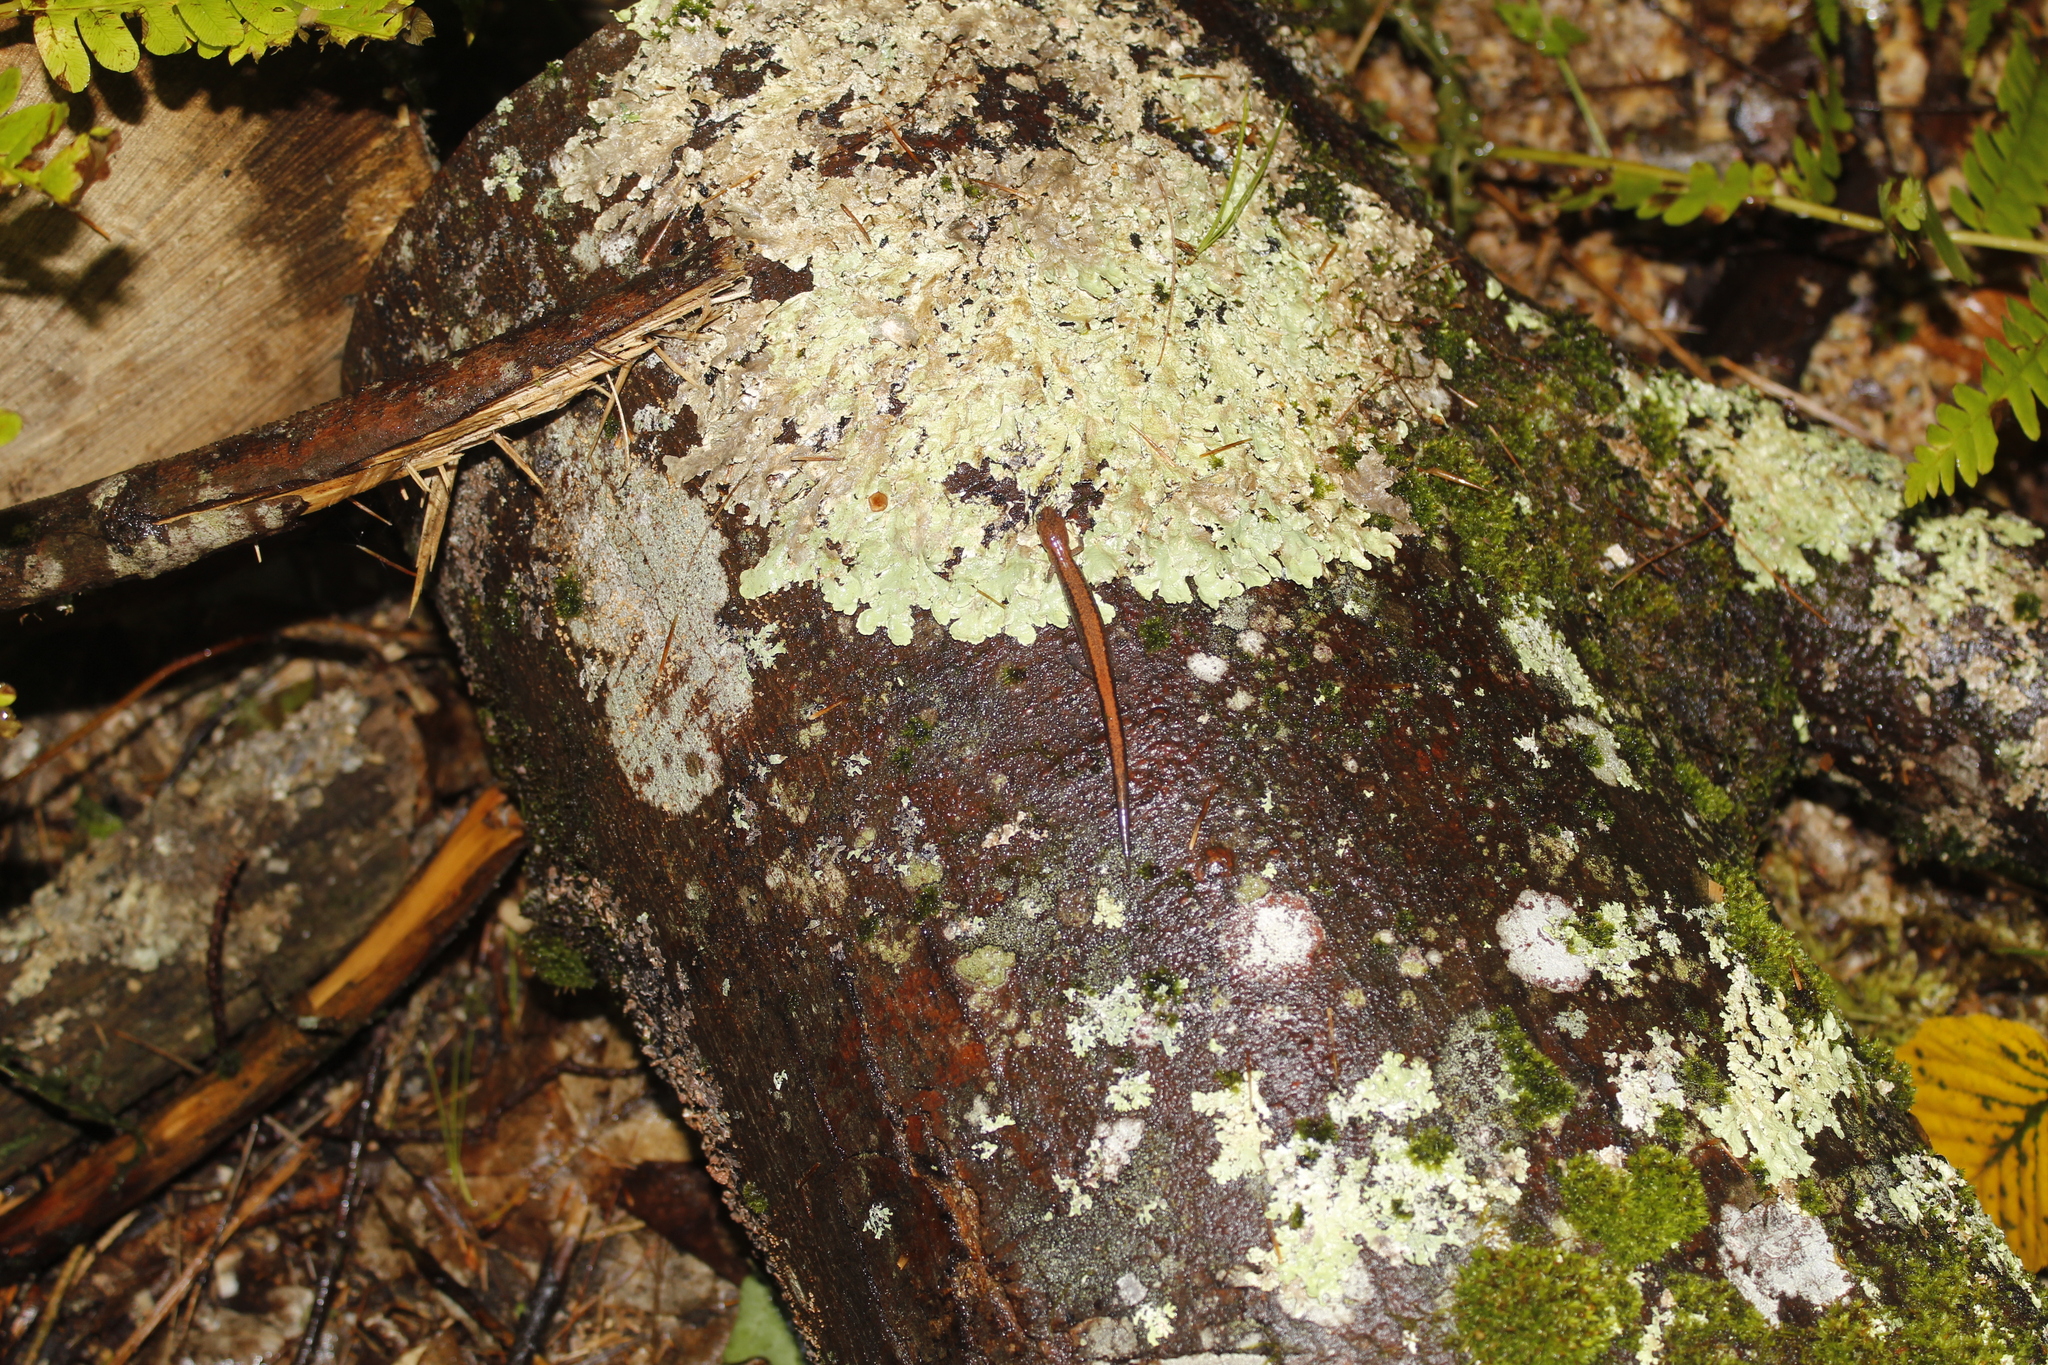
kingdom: Animalia
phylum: Chordata
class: Amphibia
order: Caudata
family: Plethodontidae
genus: Plethodon
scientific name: Plethodon cinereus
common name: Redback salamander
